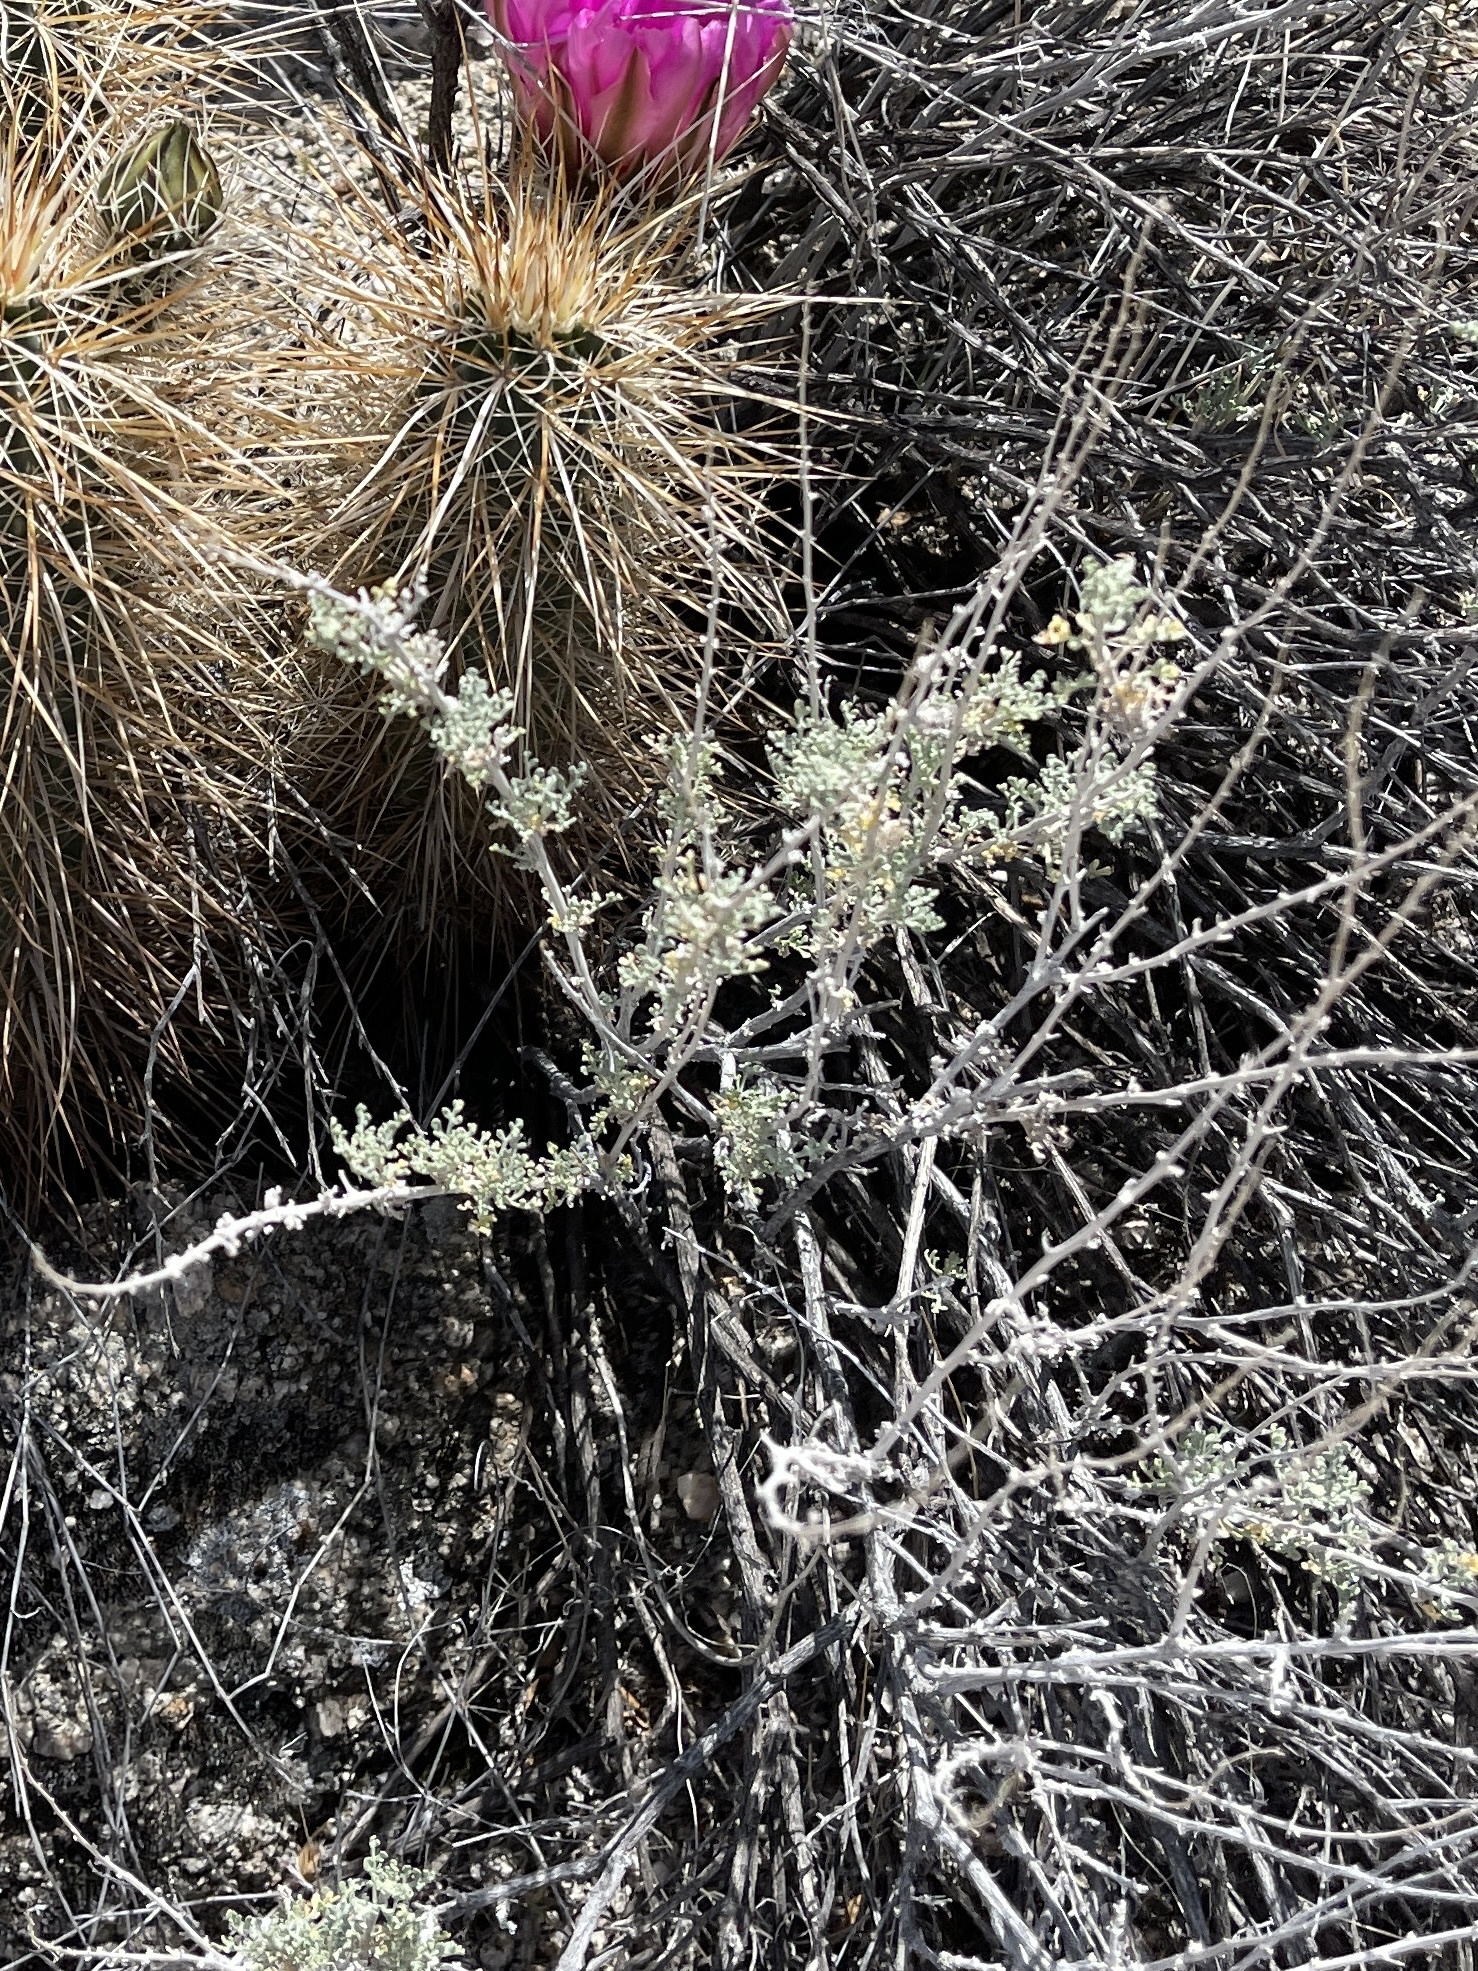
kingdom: Plantae
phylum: Tracheophyta
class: Magnoliopsida
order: Asterales
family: Asteraceae
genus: Ambrosia
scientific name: Ambrosia dumosa
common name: Bur-sage
